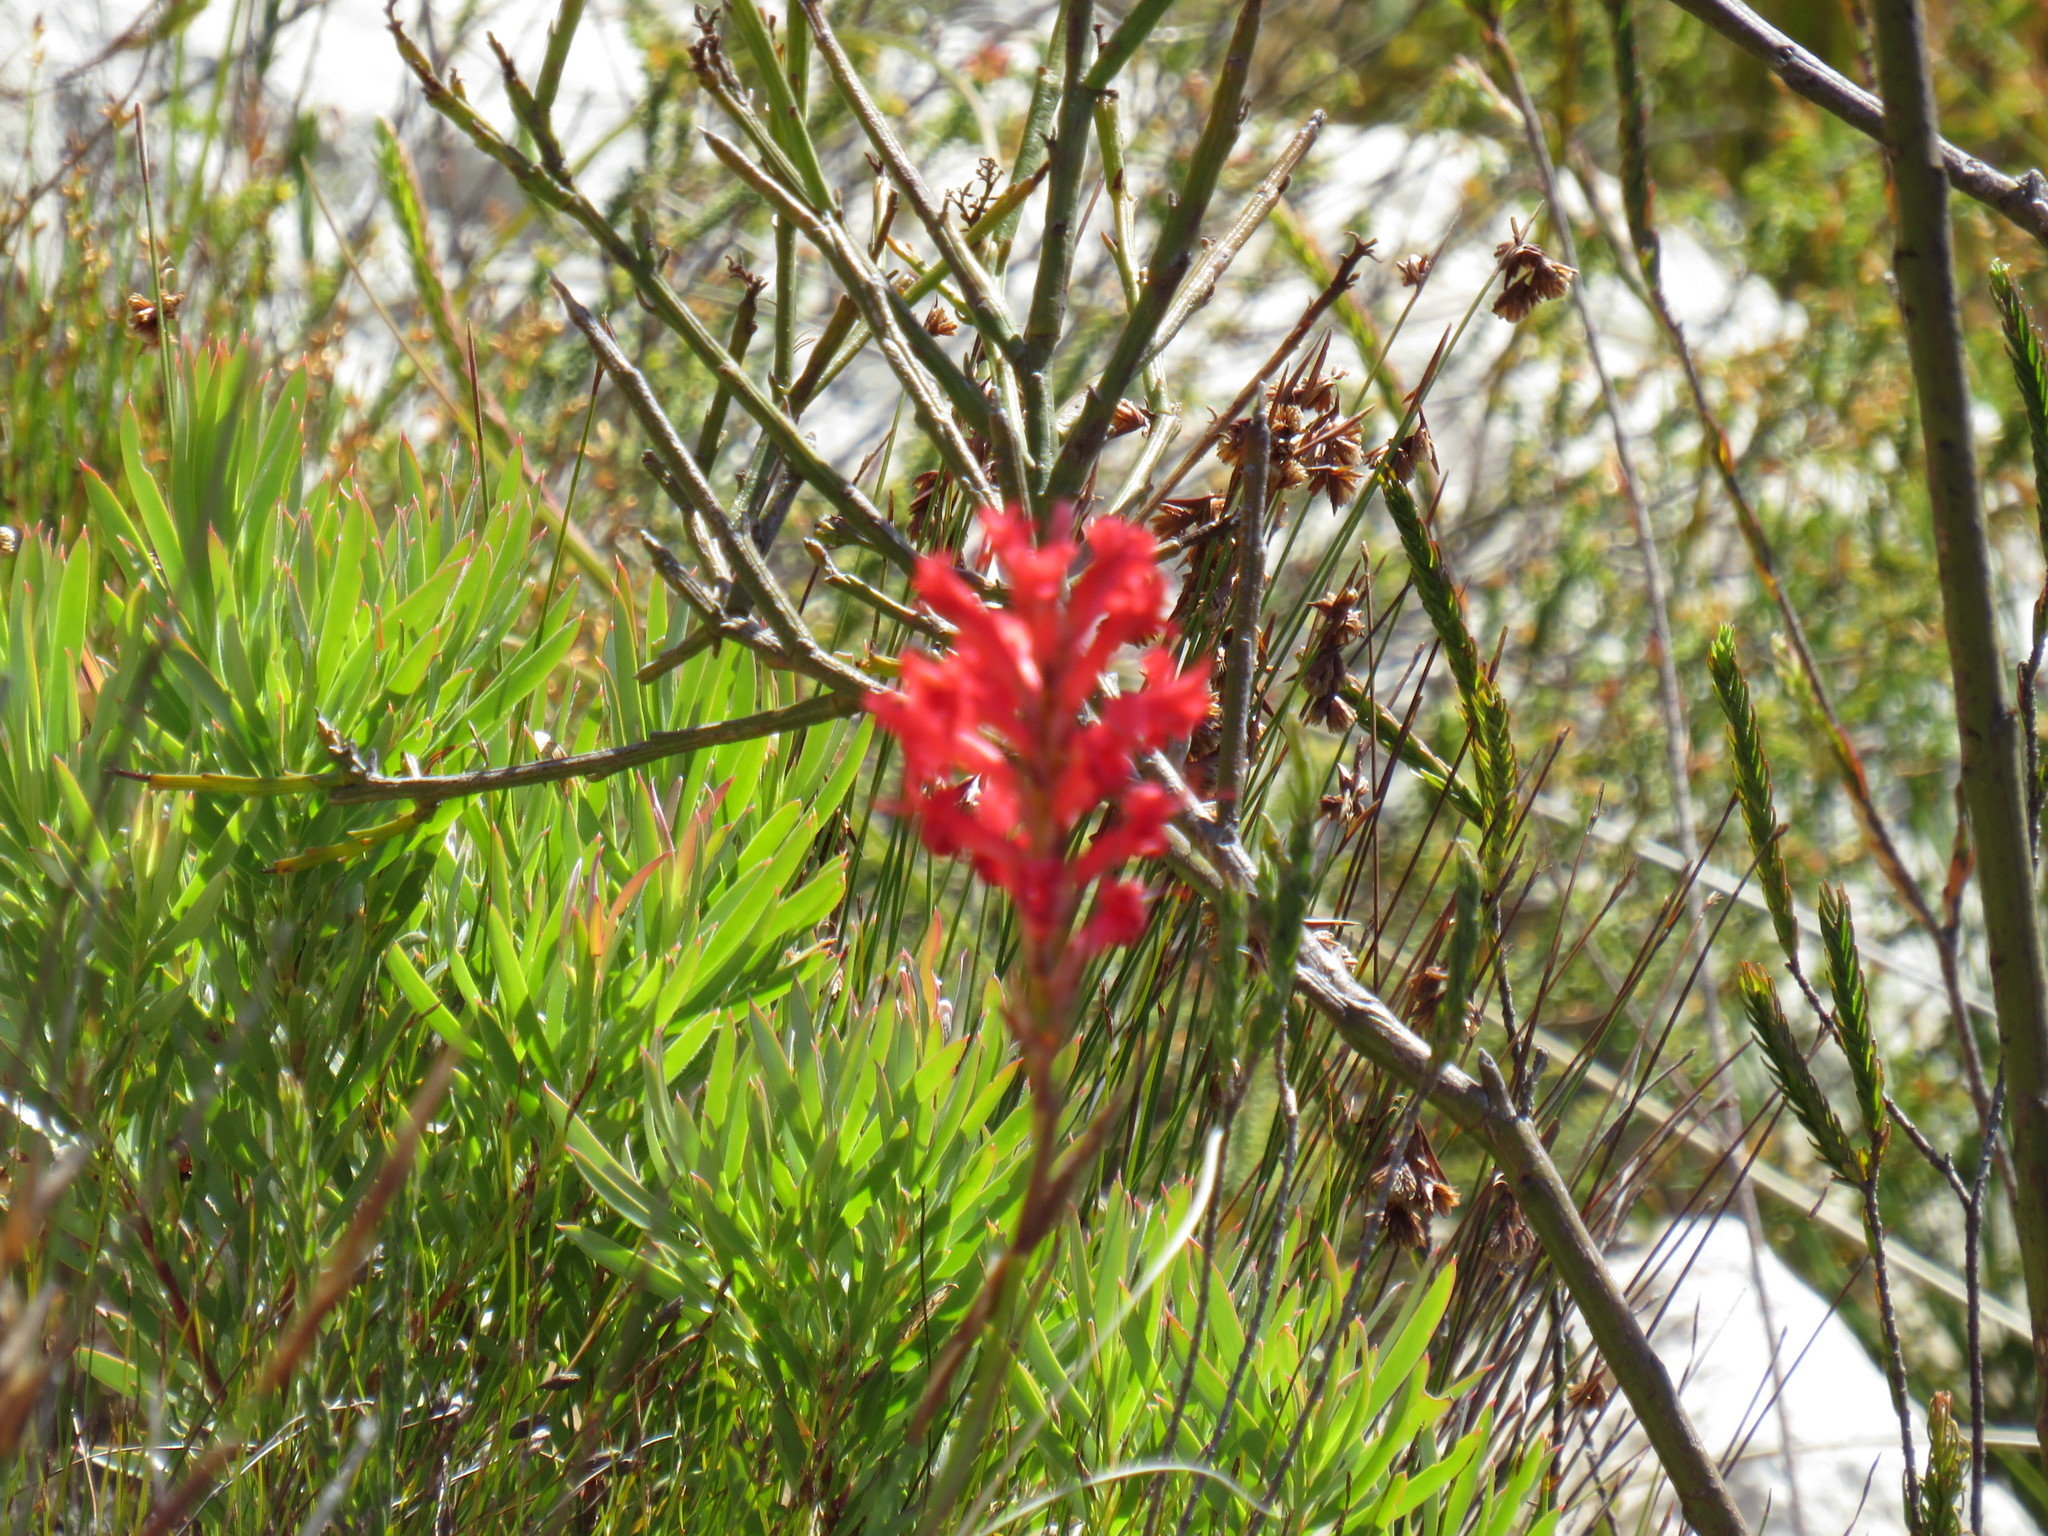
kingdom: Plantae
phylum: Tracheophyta
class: Liliopsida
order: Asparagales
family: Iridaceae
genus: Tritoniopsis
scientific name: Tritoniopsis triticea
